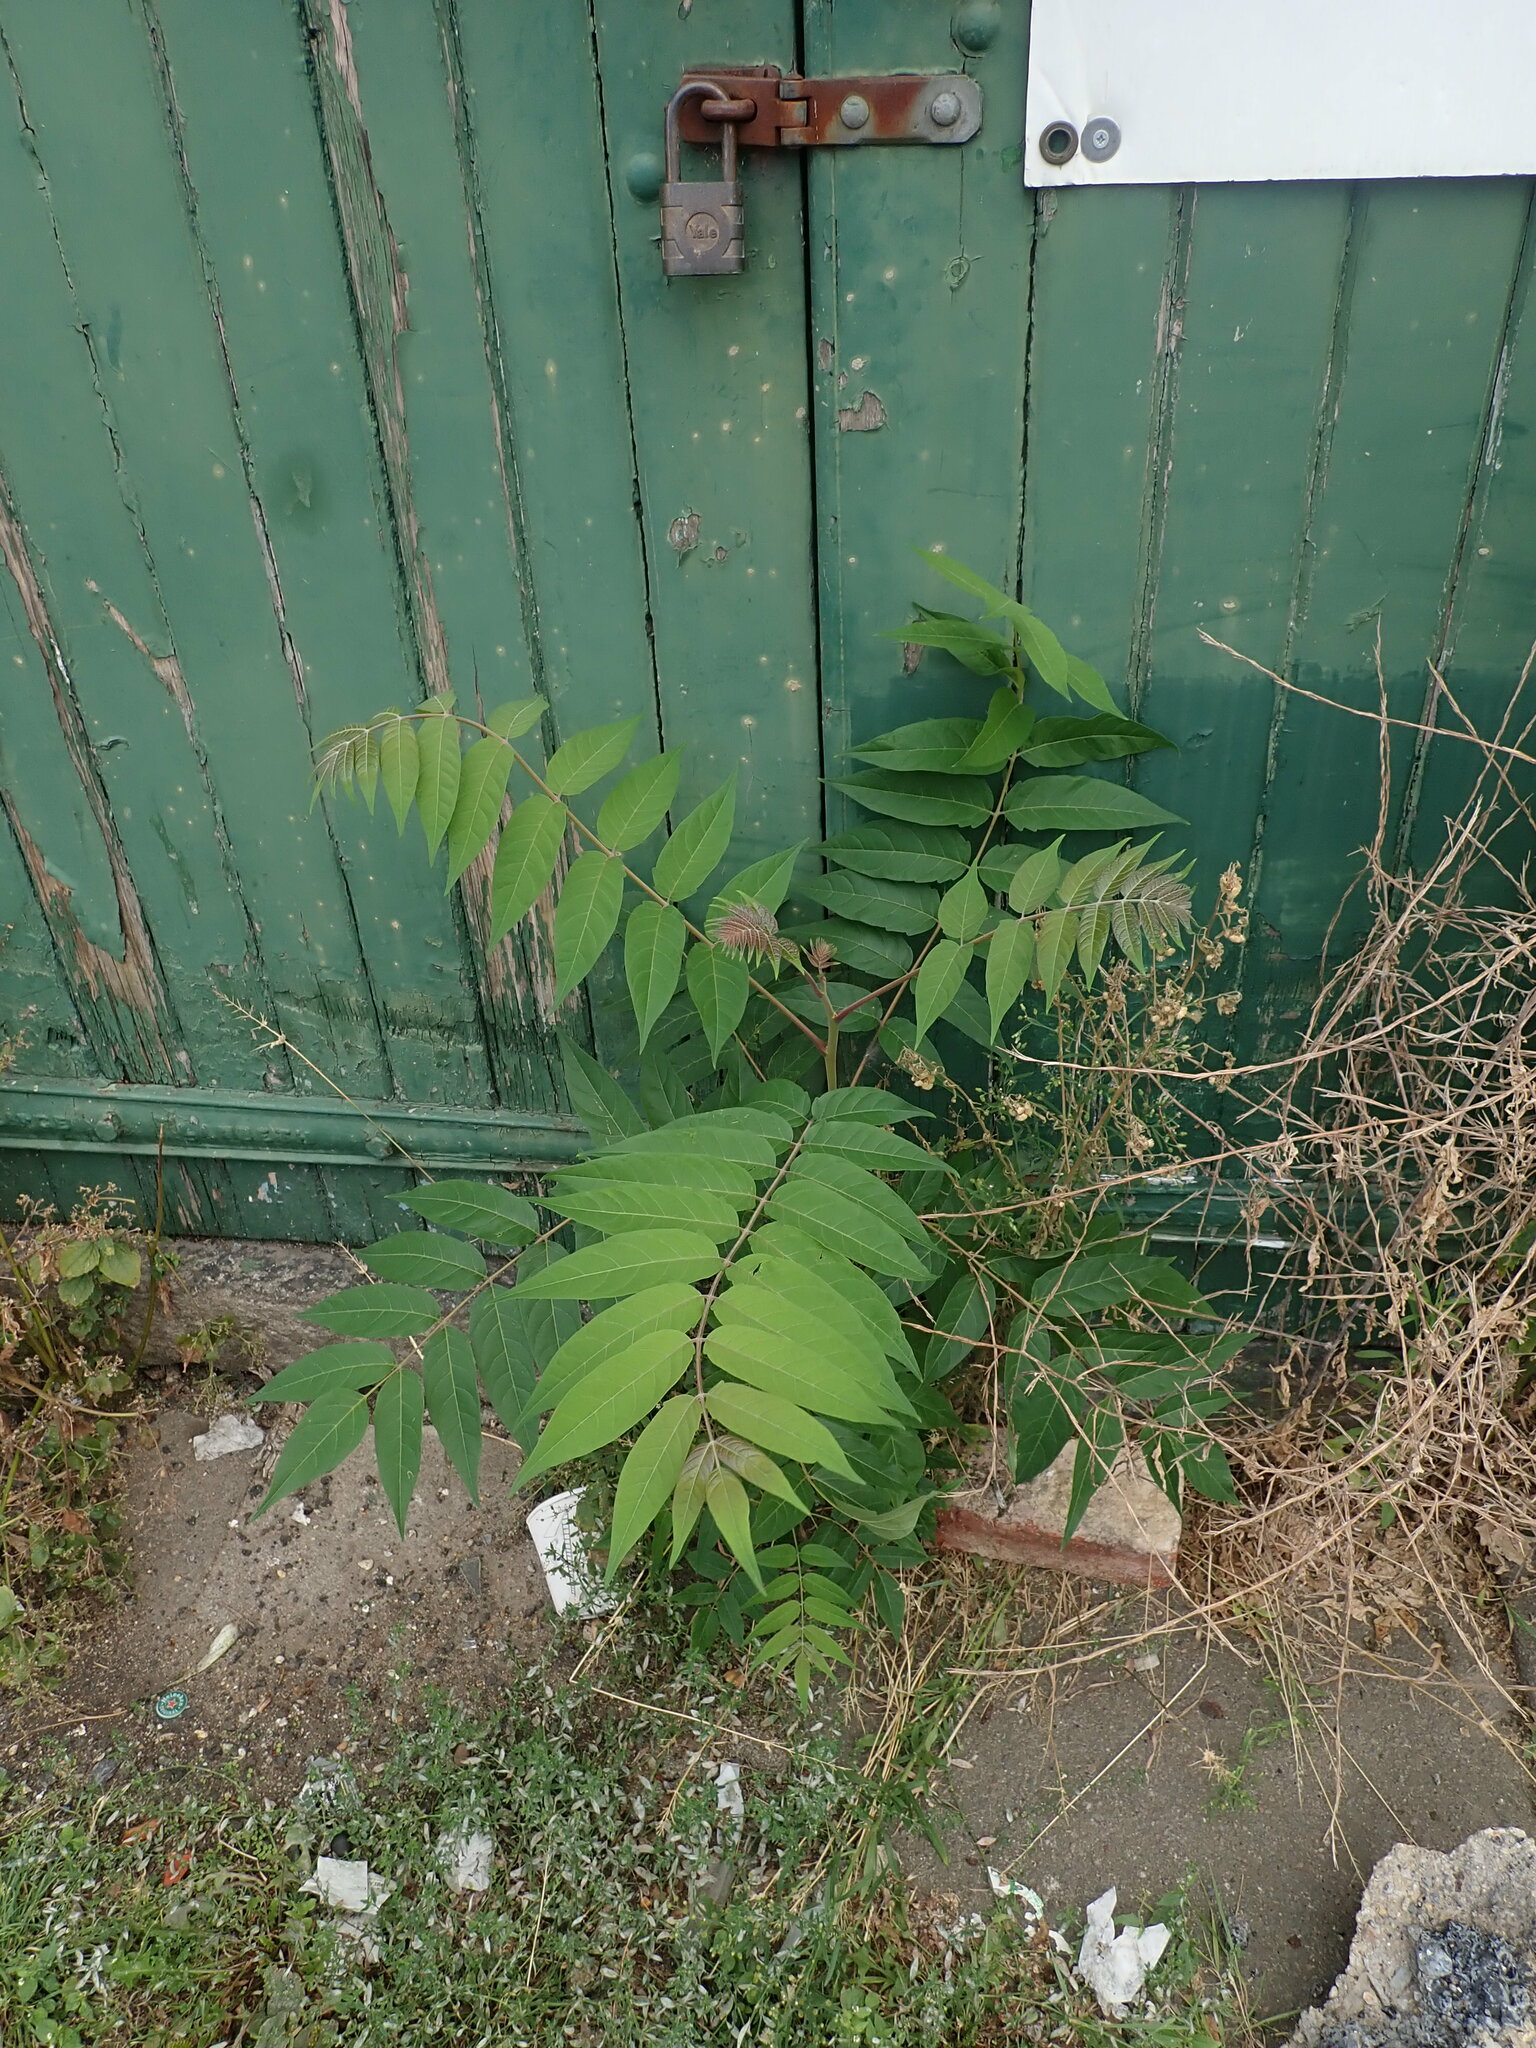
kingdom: Plantae
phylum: Tracheophyta
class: Magnoliopsida
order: Sapindales
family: Simaroubaceae
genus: Ailanthus
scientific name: Ailanthus altissima
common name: Tree-of-heaven
